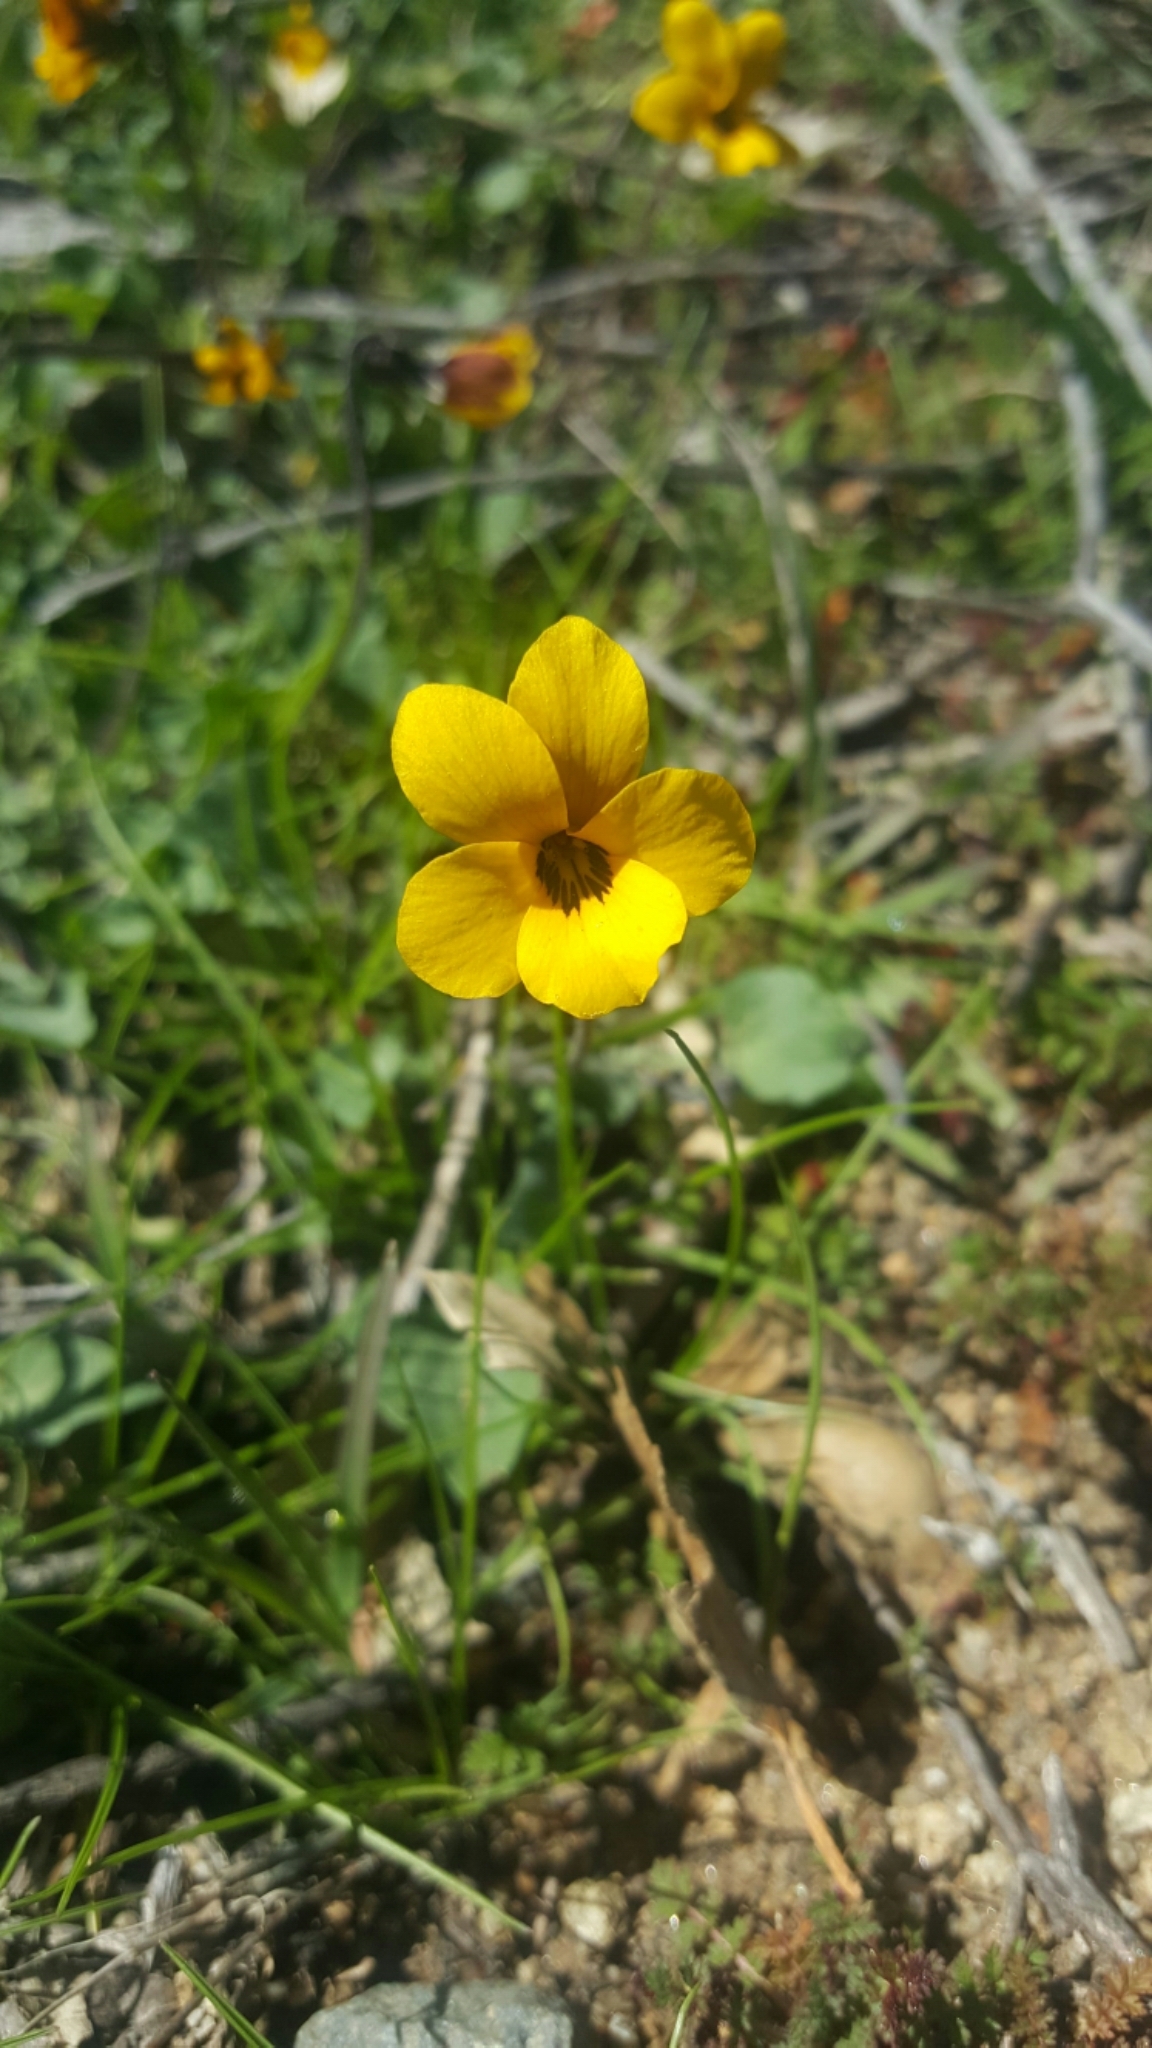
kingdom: Plantae
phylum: Tracheophyta
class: Magnoliopsida
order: Malpighiales
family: Violaceae
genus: Viola
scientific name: Viola pedunculata
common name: California golden violet
